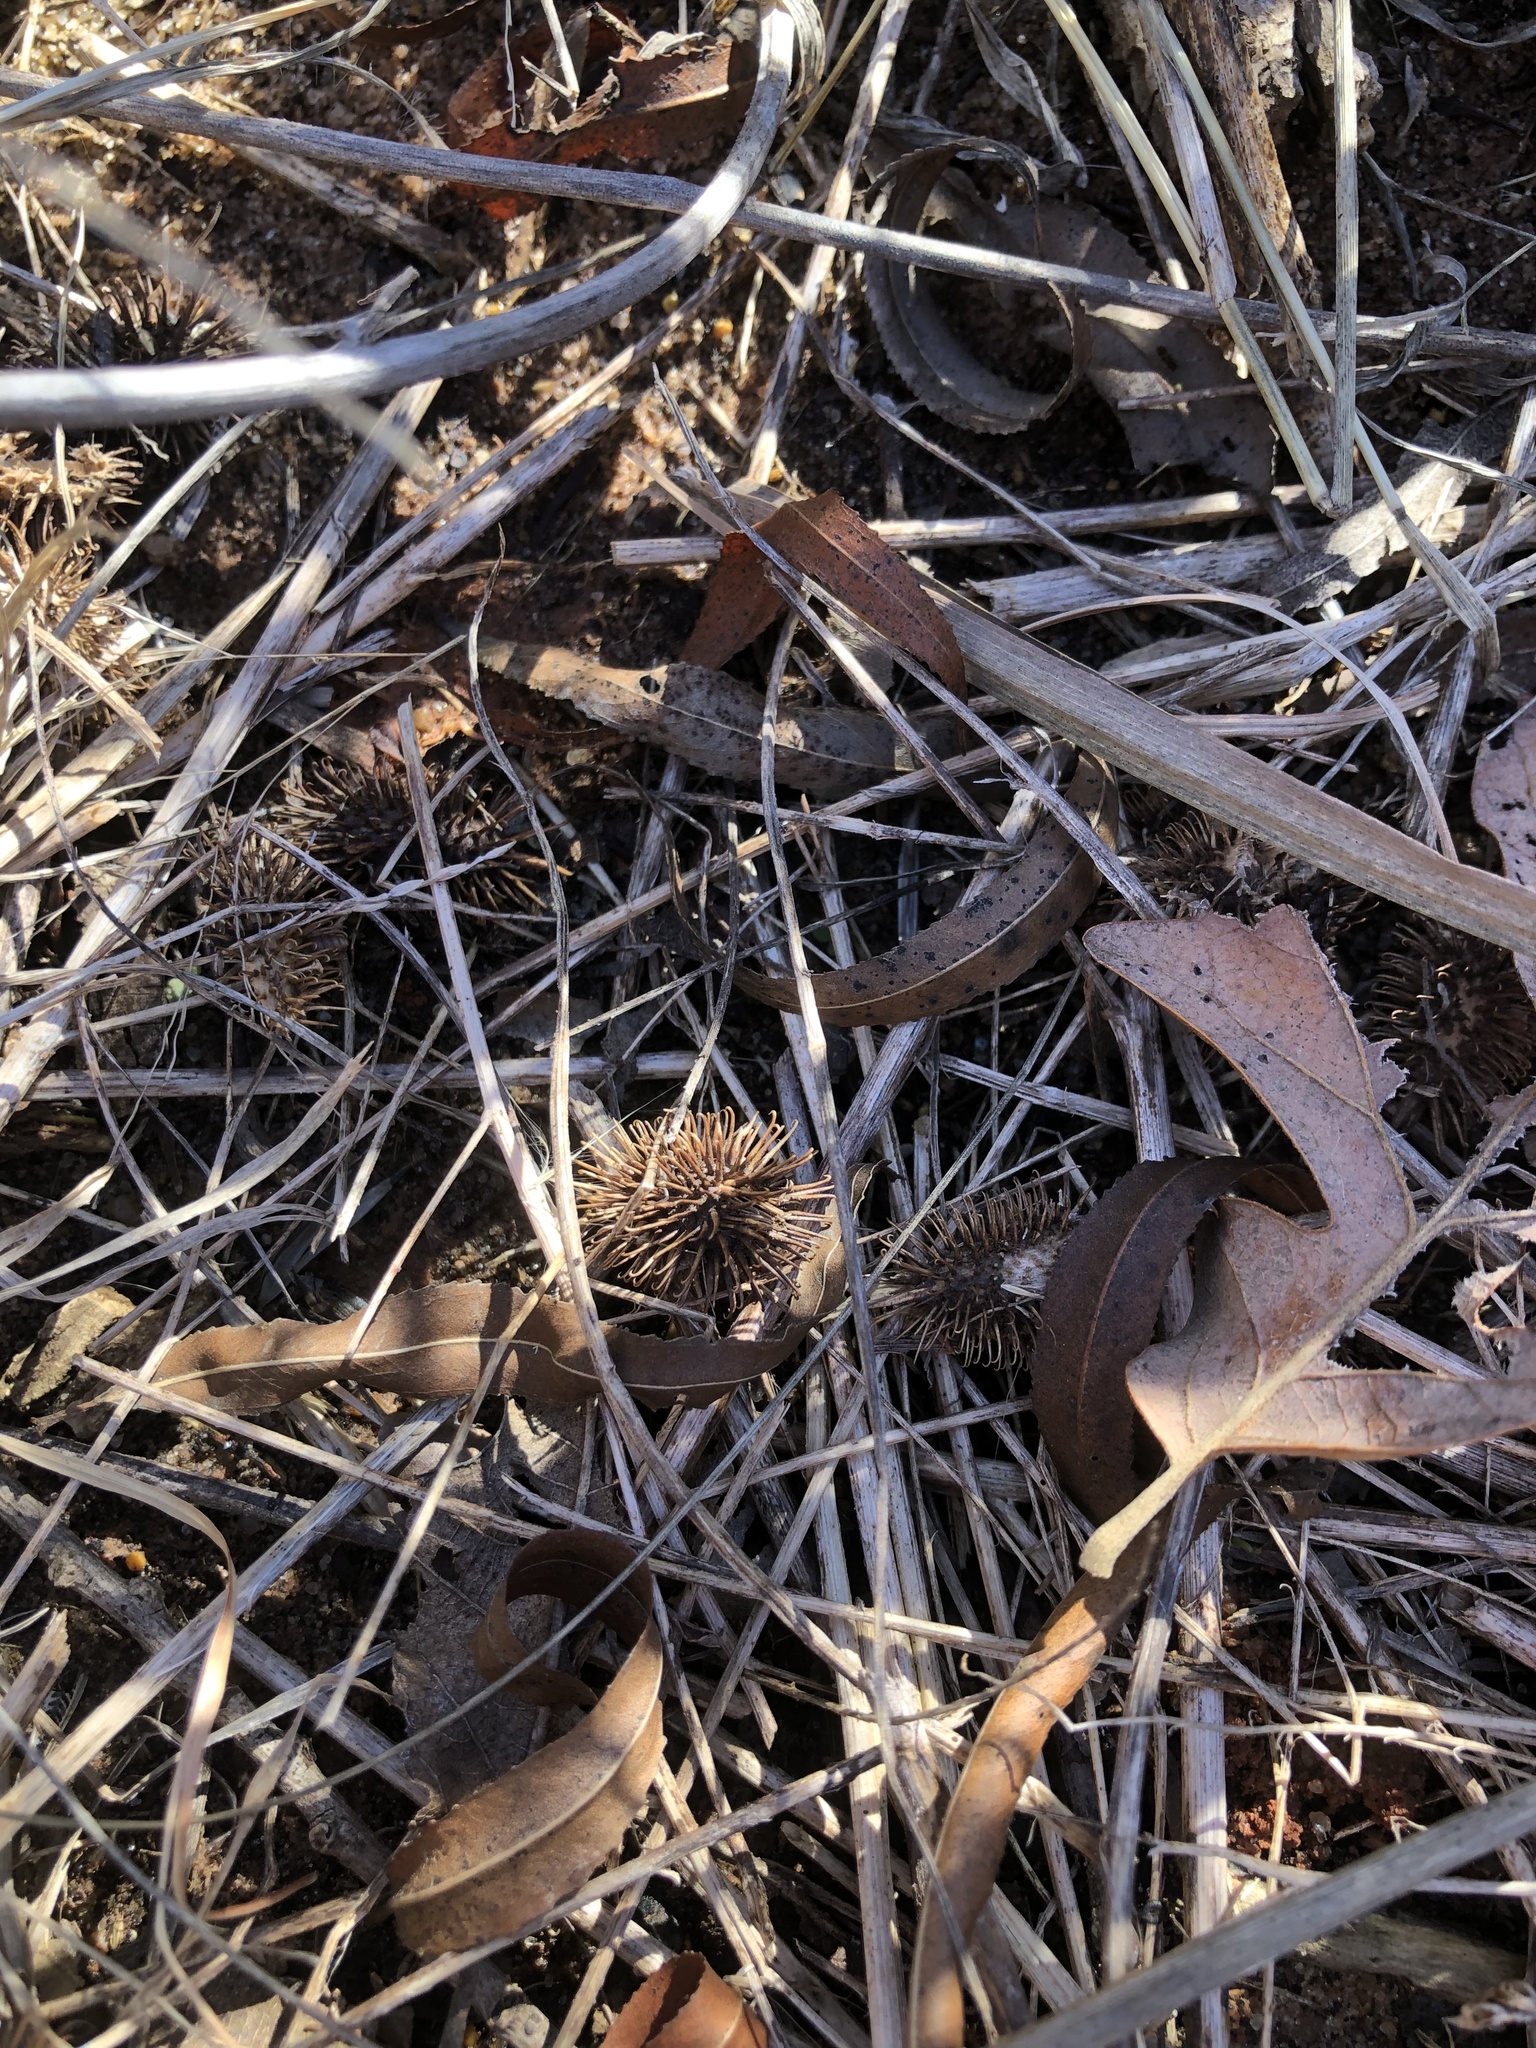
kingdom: Plantae
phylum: Tracheophyta
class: Magnoliopsida
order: Asterales
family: Asteraceae
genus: Xanthium
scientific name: Xanthium strumarium
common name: Rough cocklebur
